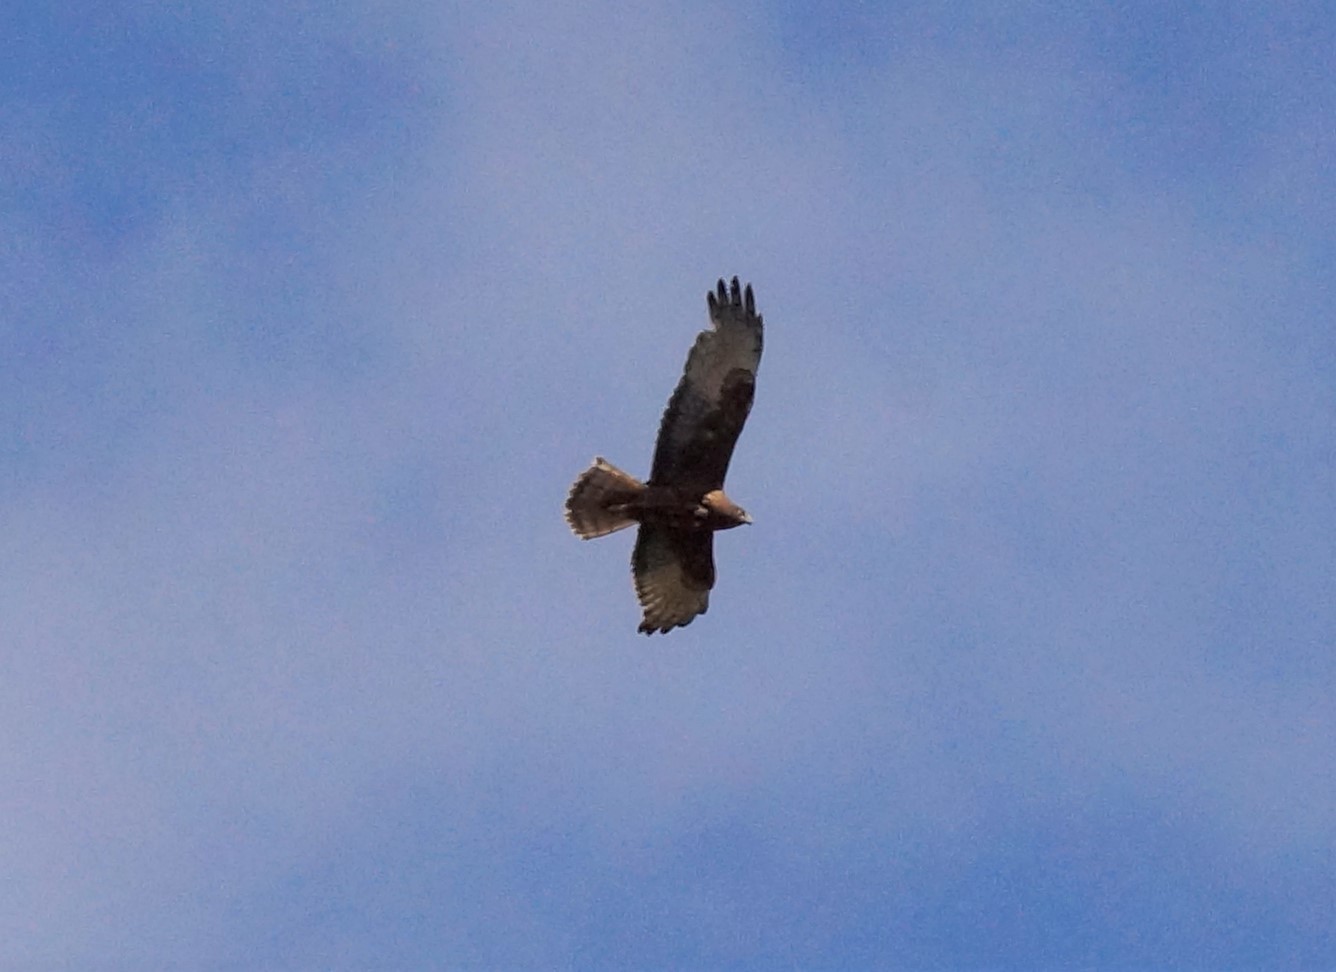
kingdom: Animalia
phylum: Chordata
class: Aves
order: Accipitriformes
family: Accipitridae
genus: Circus
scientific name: Circus approximans
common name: Swamp harrier
